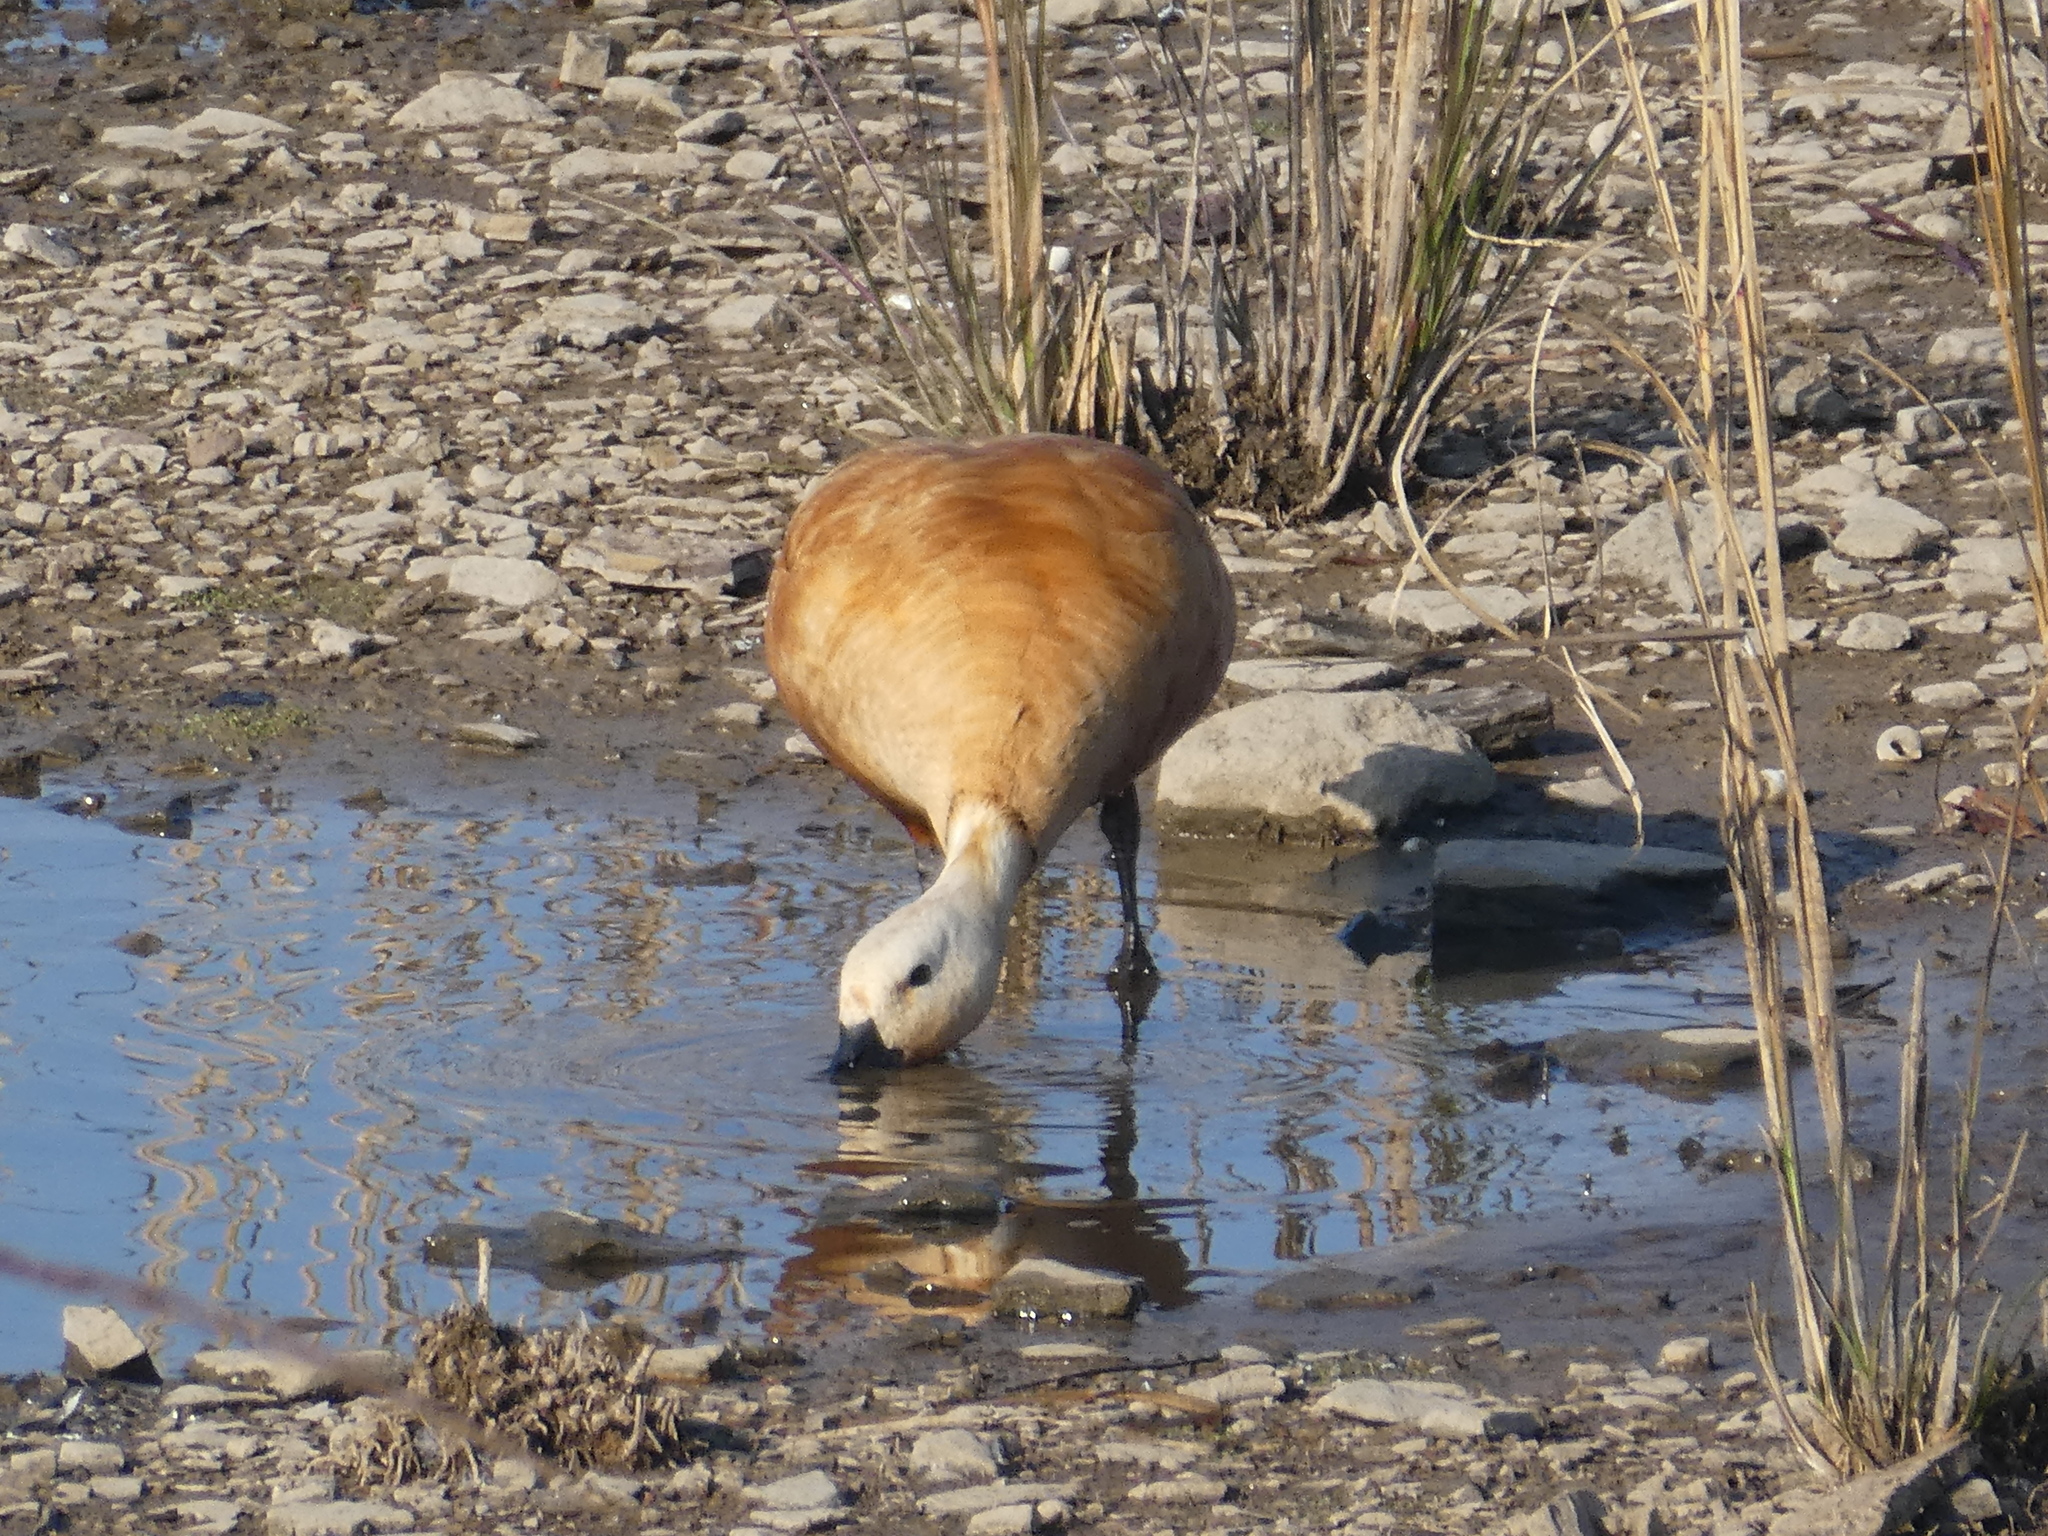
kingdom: Animalia
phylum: Chordata
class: Aves
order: Anseriformes
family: Anatidae
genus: Tadorna
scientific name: Tadorna ferruginea
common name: Ruddy shelduck
